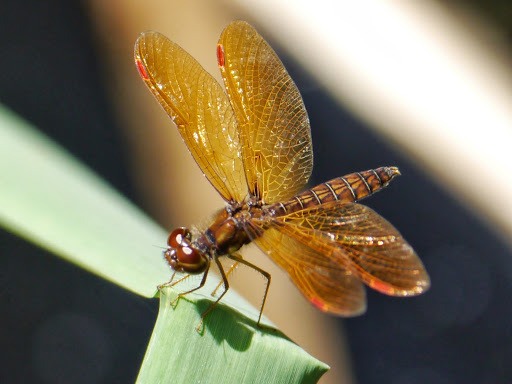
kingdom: Animalia
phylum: Arthropoda
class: Insecta
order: Odonata
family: Libellulidae
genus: Perithemis
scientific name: Perithemis tenera
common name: Eastern amberwing
